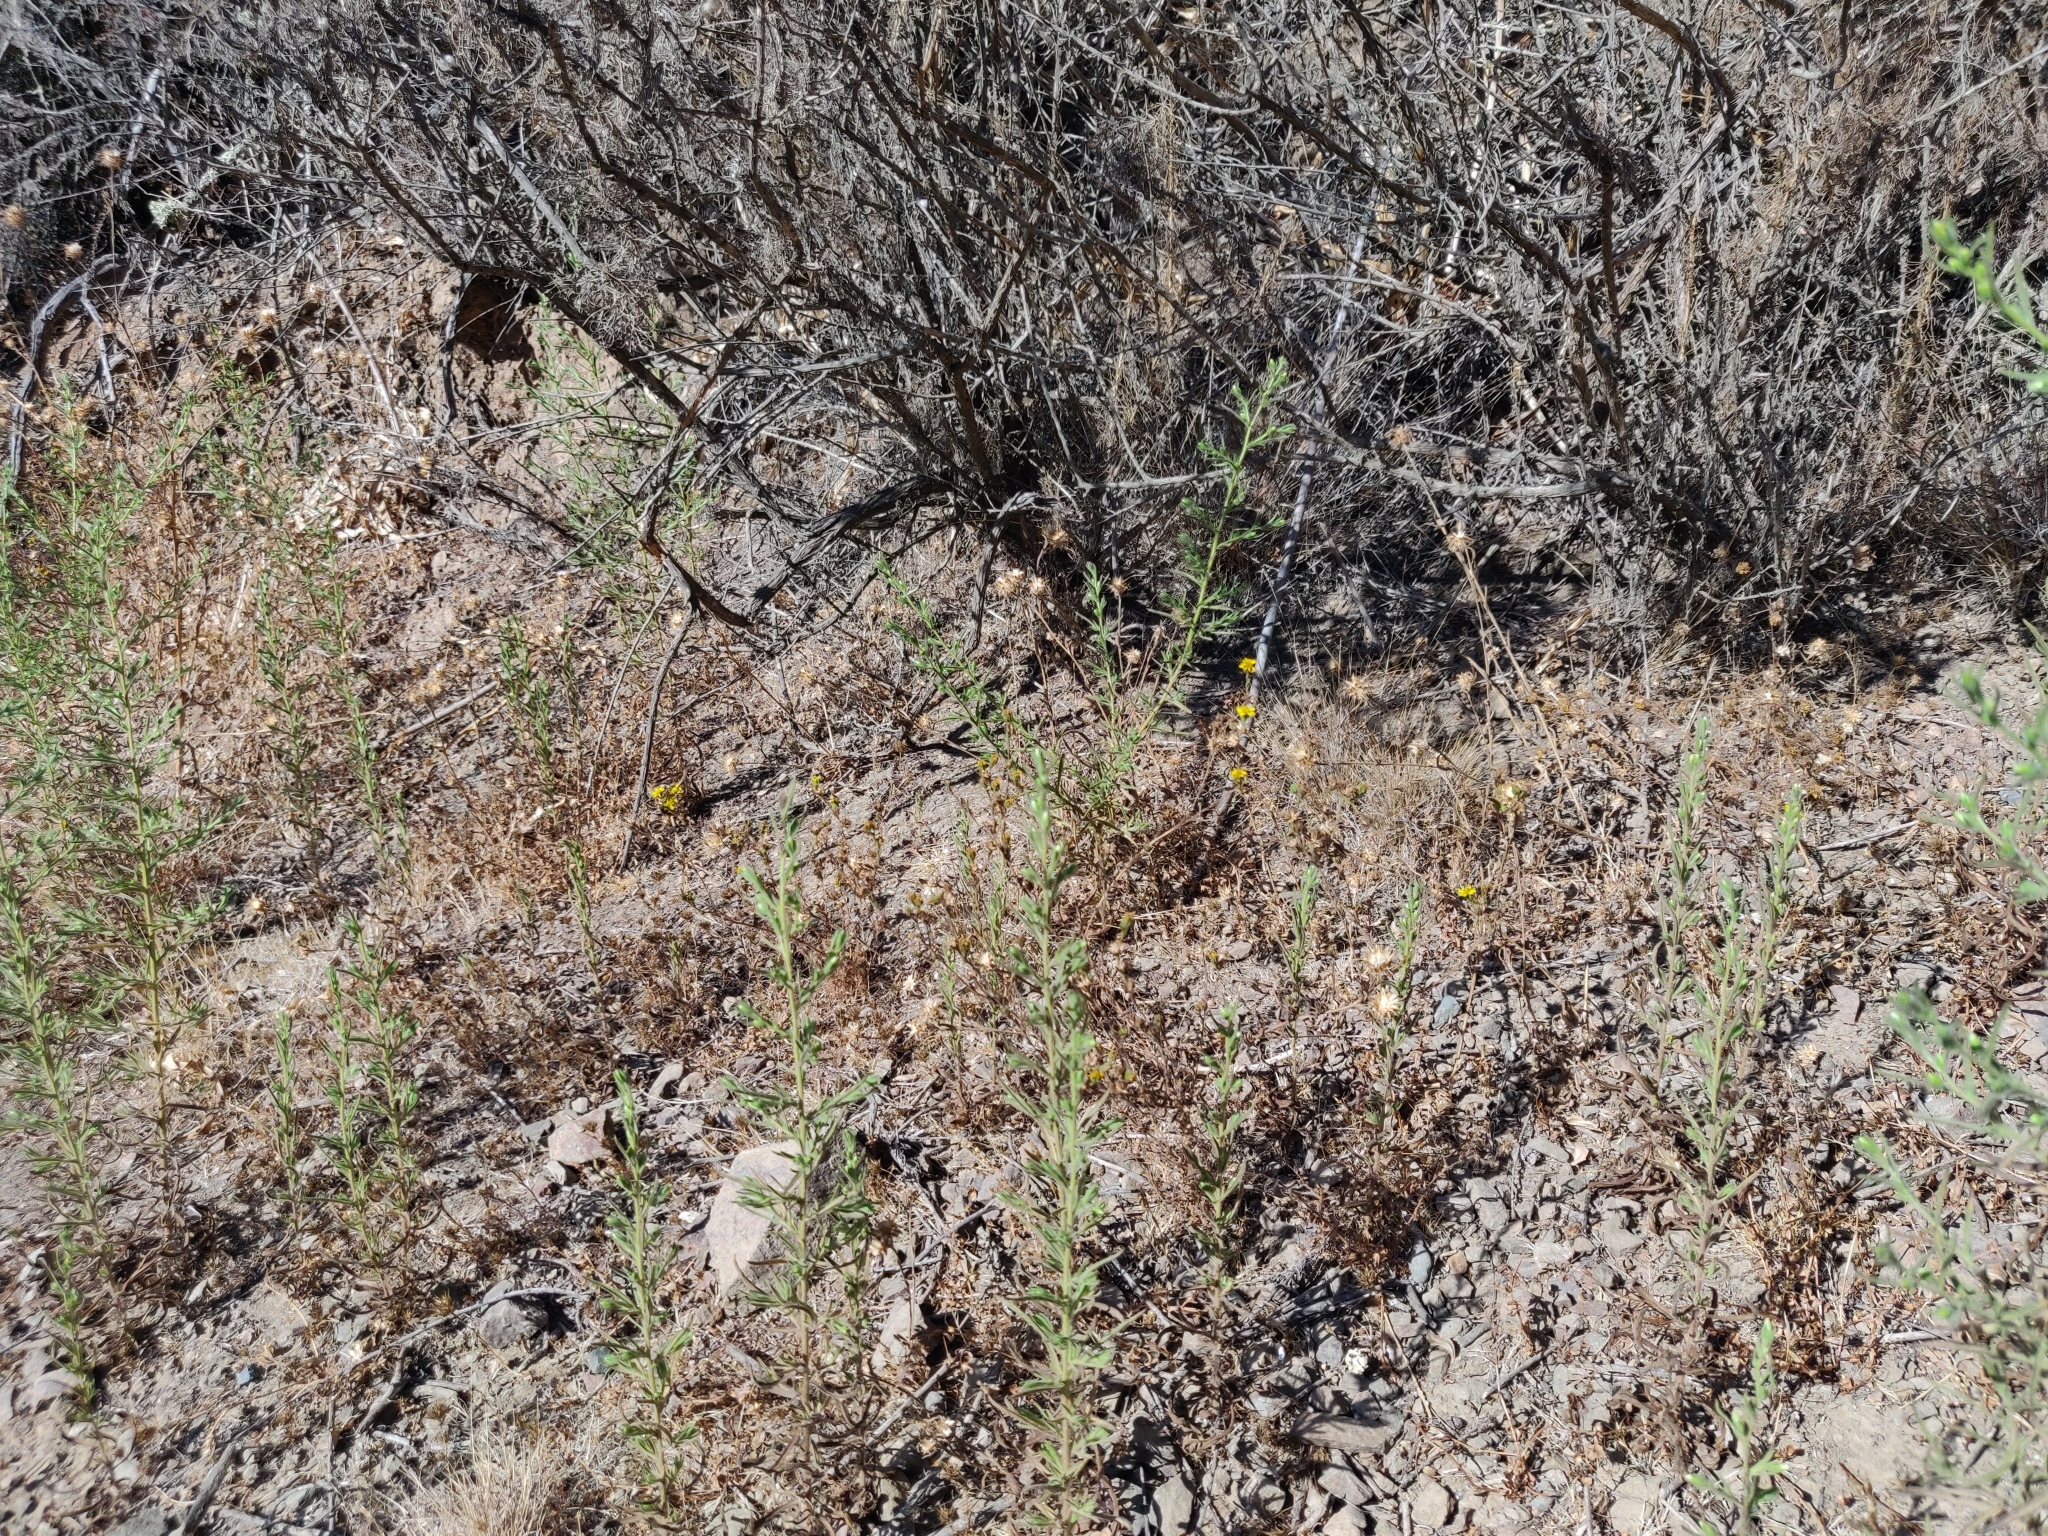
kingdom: Plantae
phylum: Tracheophyta
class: Magnoliopsida
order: Asterales
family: Asteraceae
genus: Deinandra
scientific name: Deinandra corymbosa
